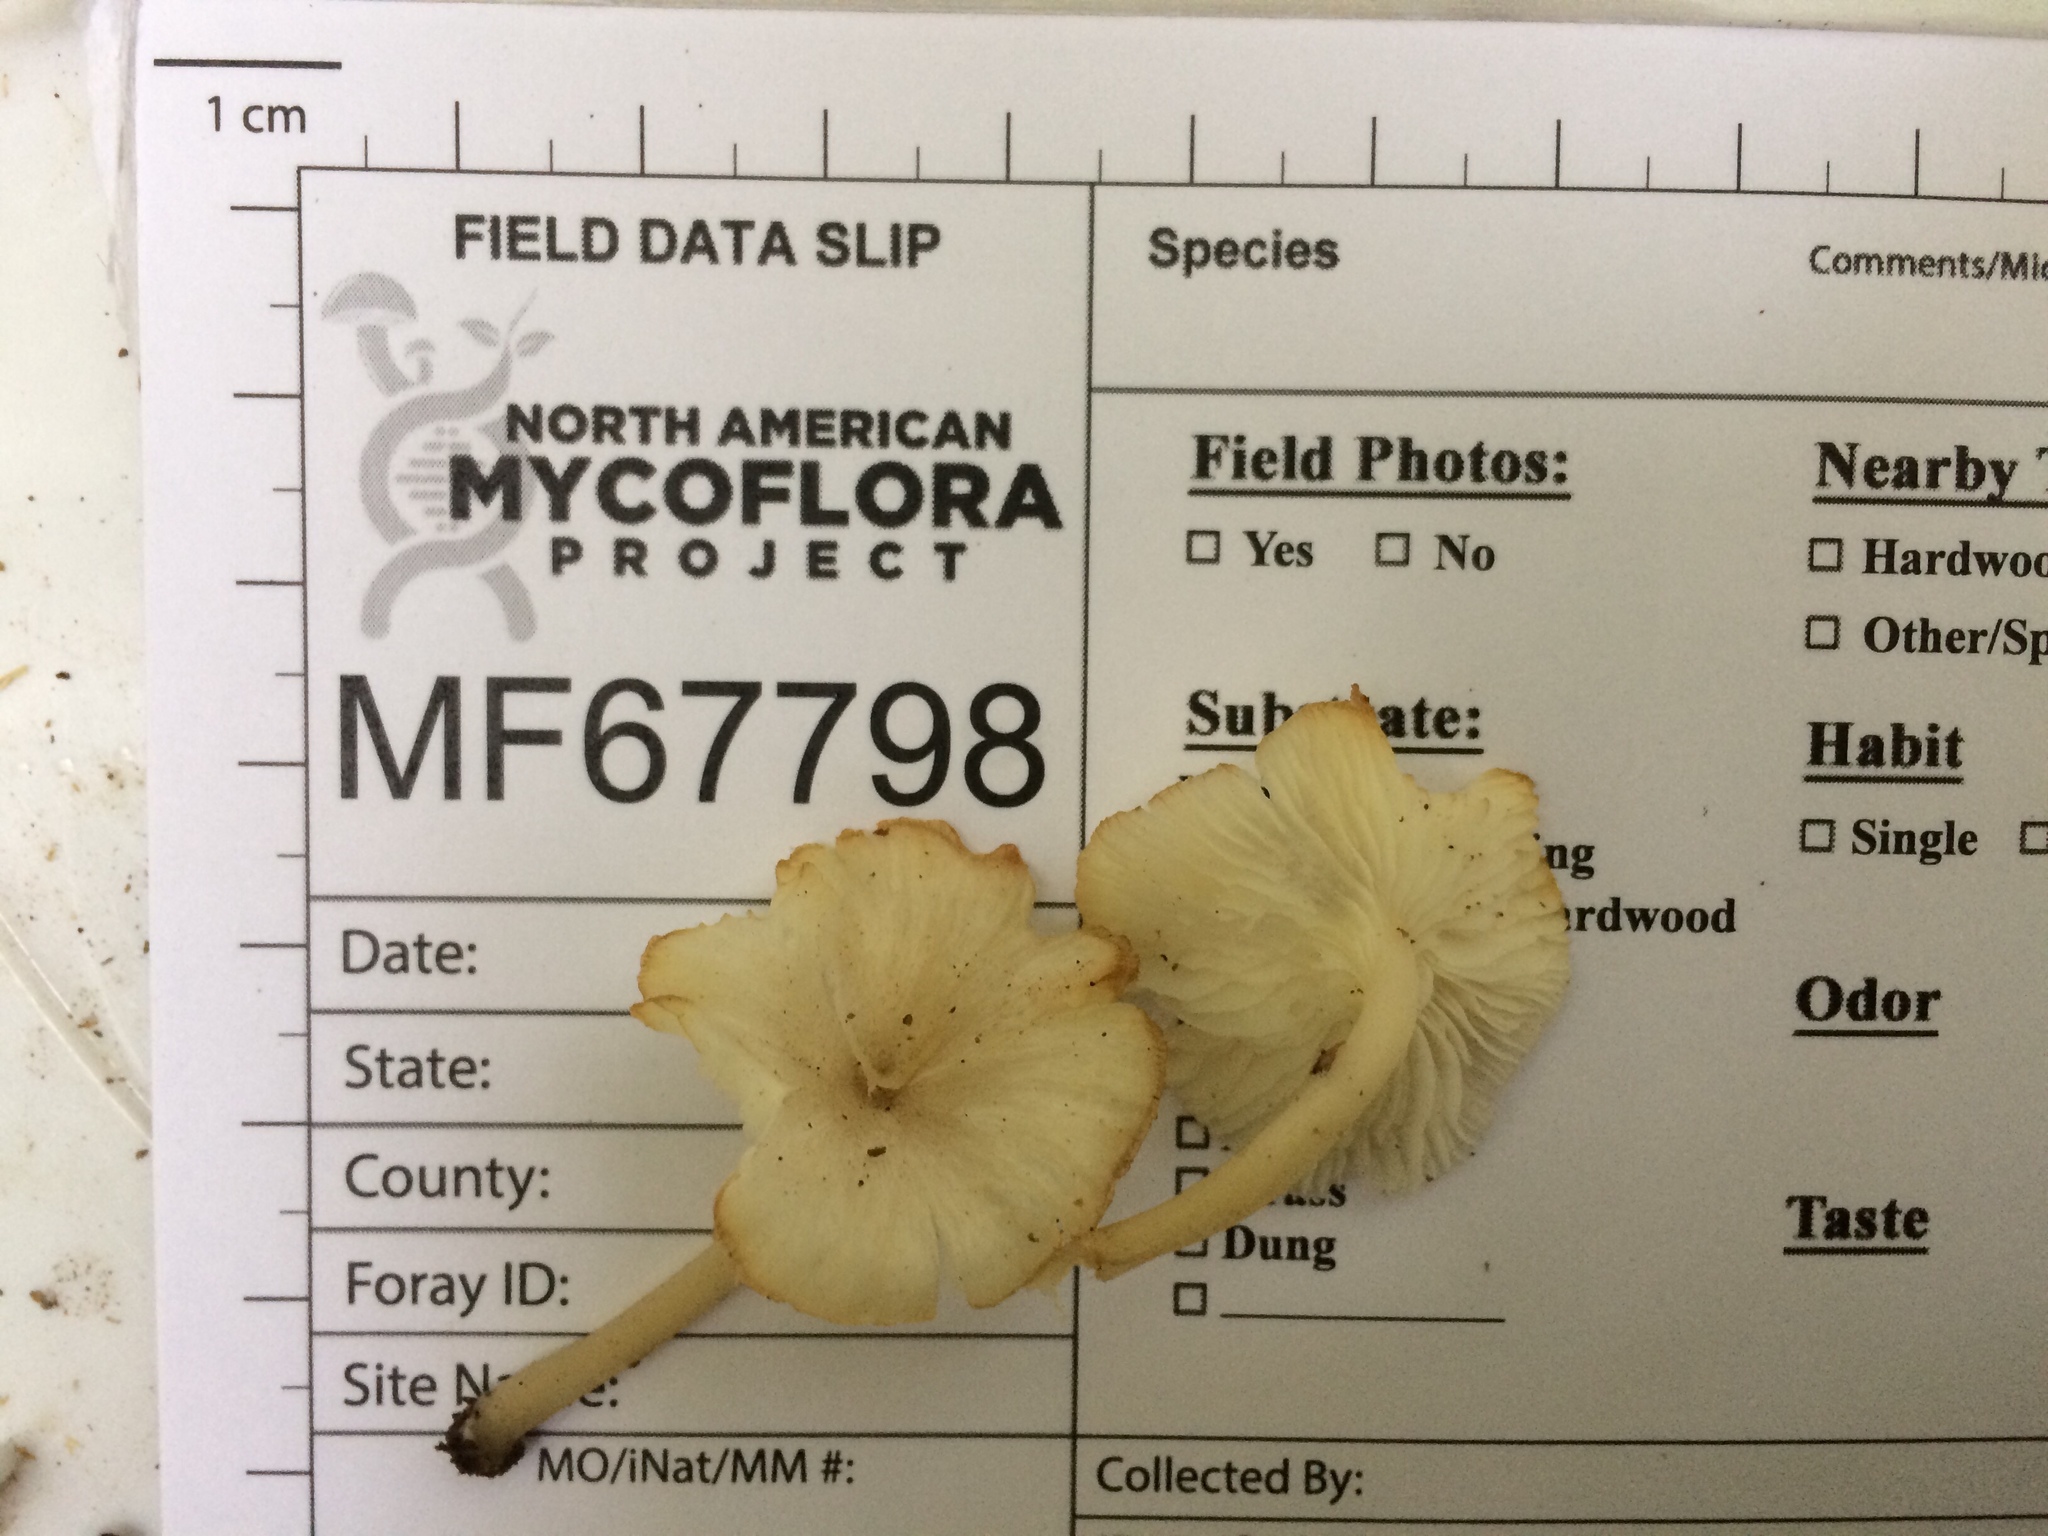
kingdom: Fungi
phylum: Basidiomycota
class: Agaricomycetes
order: Agaricales
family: Marasmiaceae
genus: Clitocybula
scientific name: Clitocybula oculus
